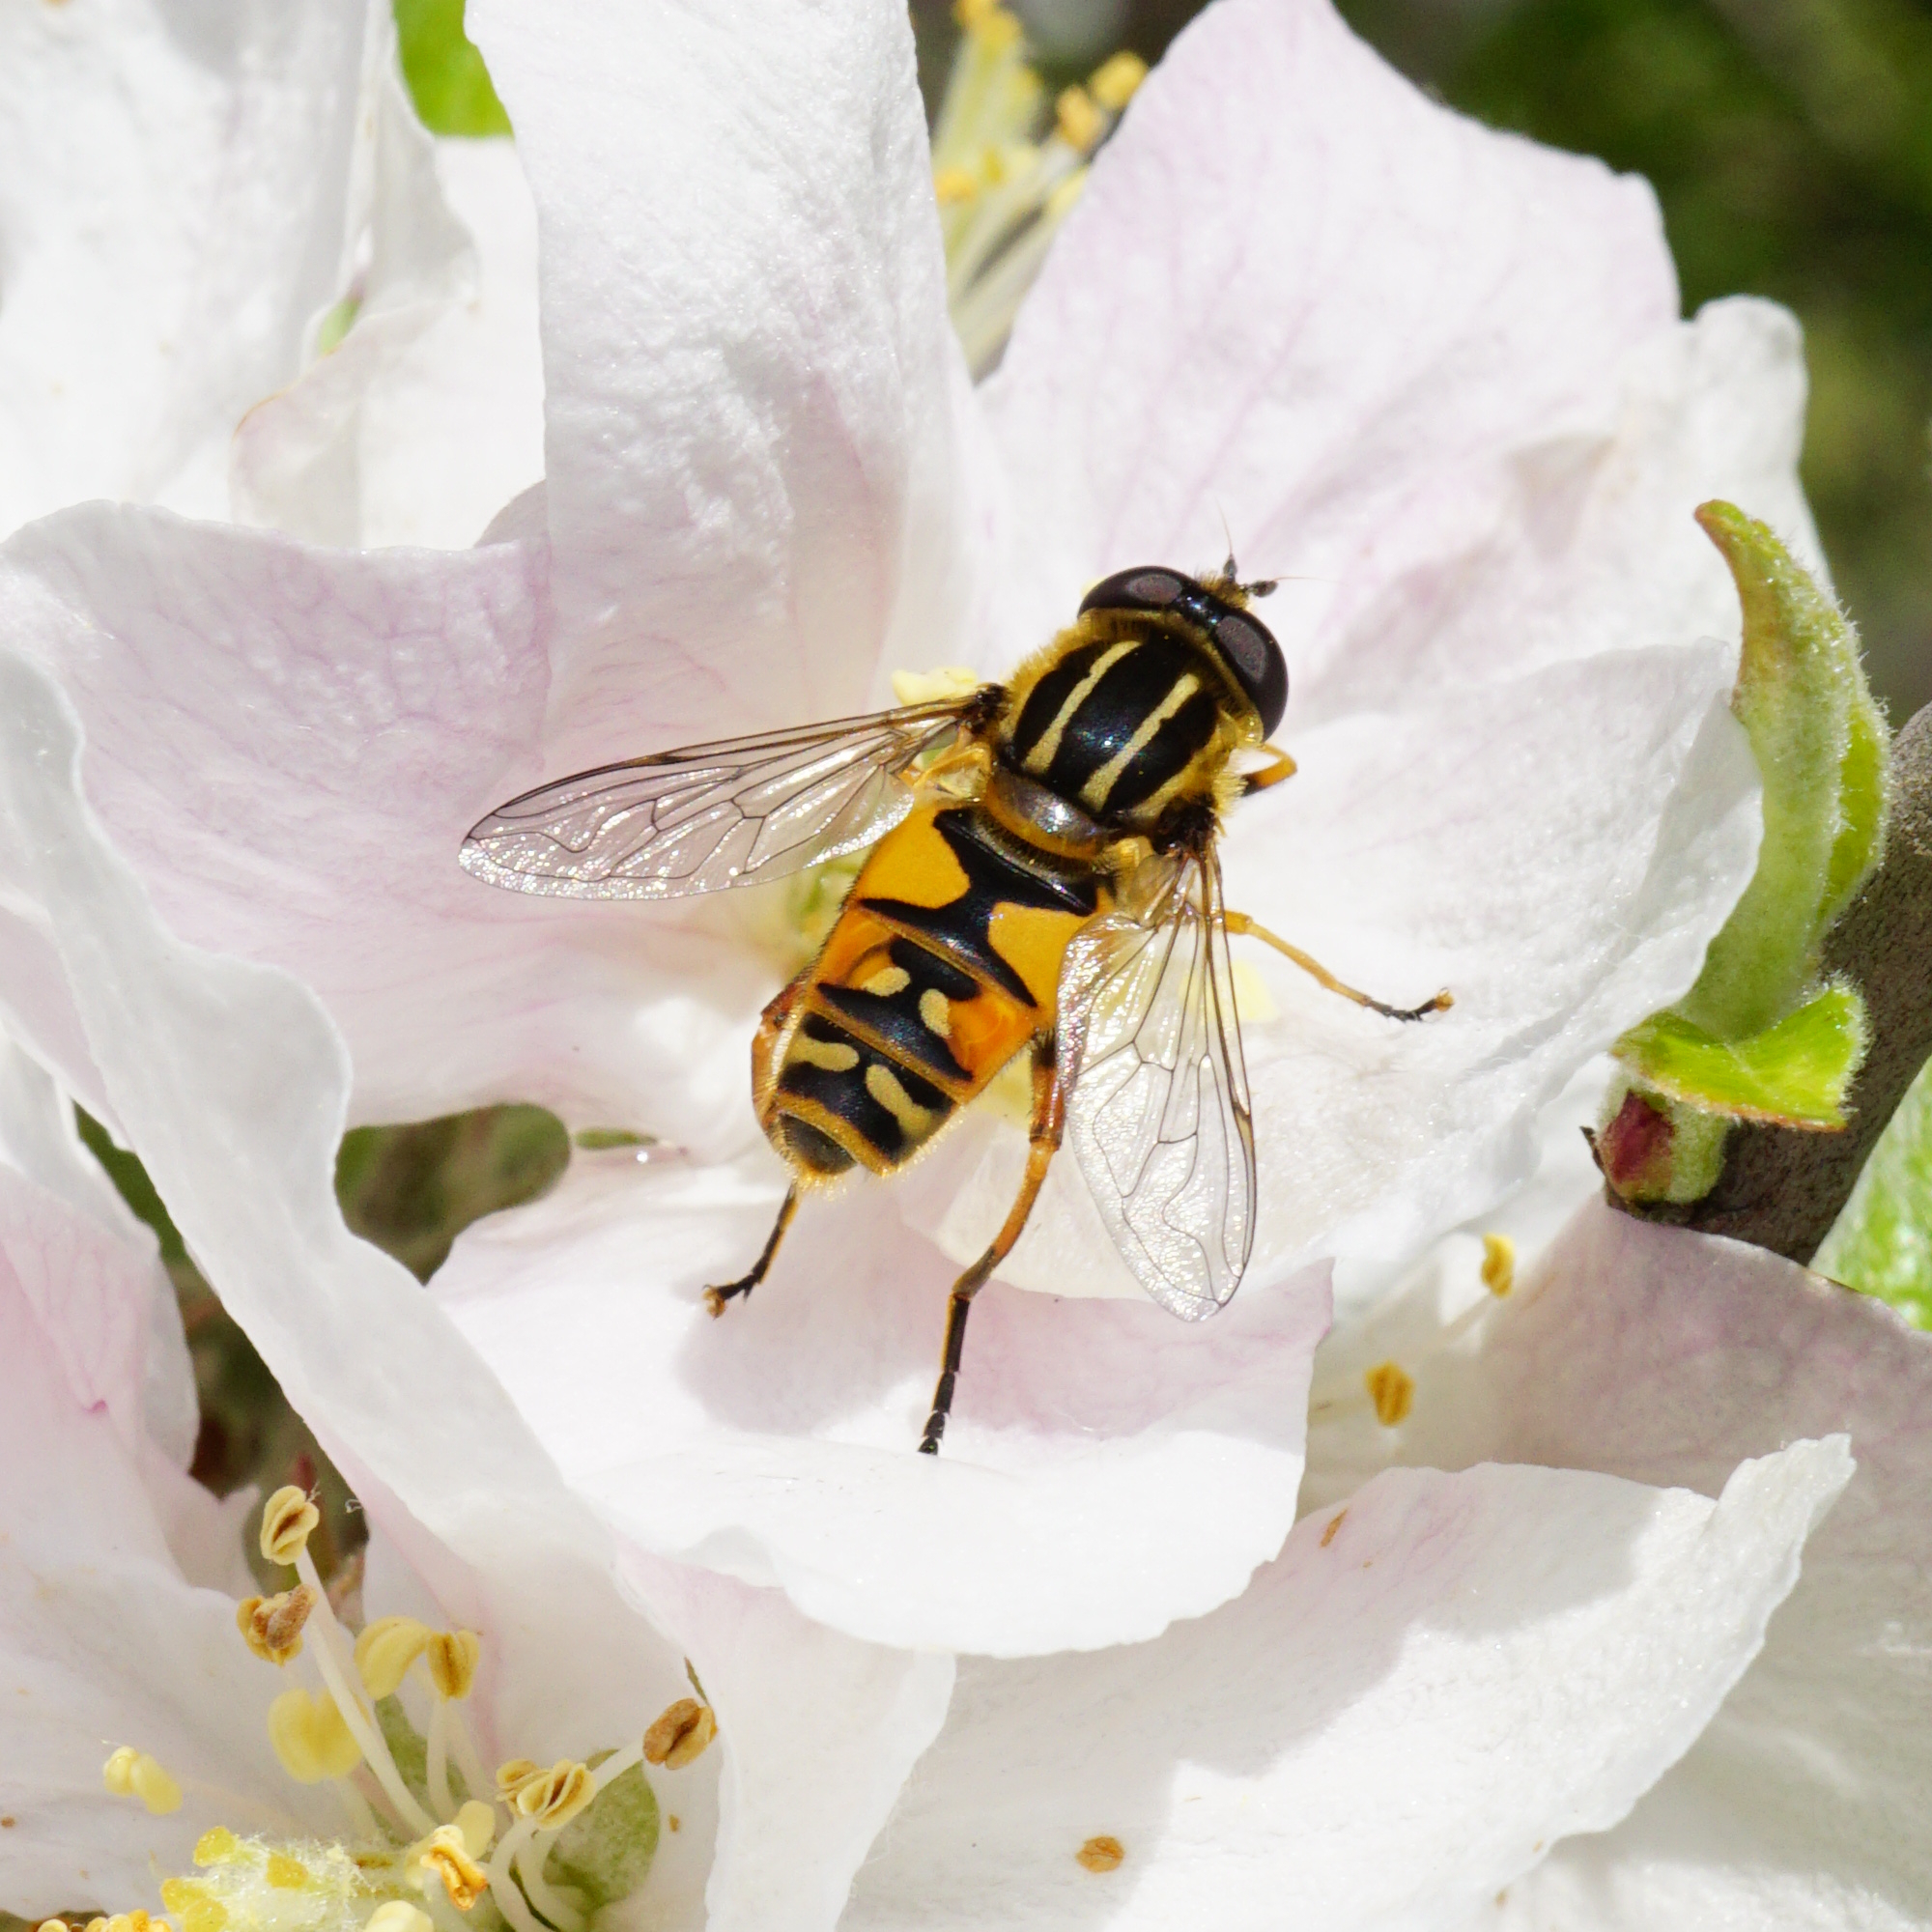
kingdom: Animalia
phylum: Arthropoda
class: Insecta
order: Diptera
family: Syrphidae
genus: Helophilus
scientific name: Helophilus pendulus
